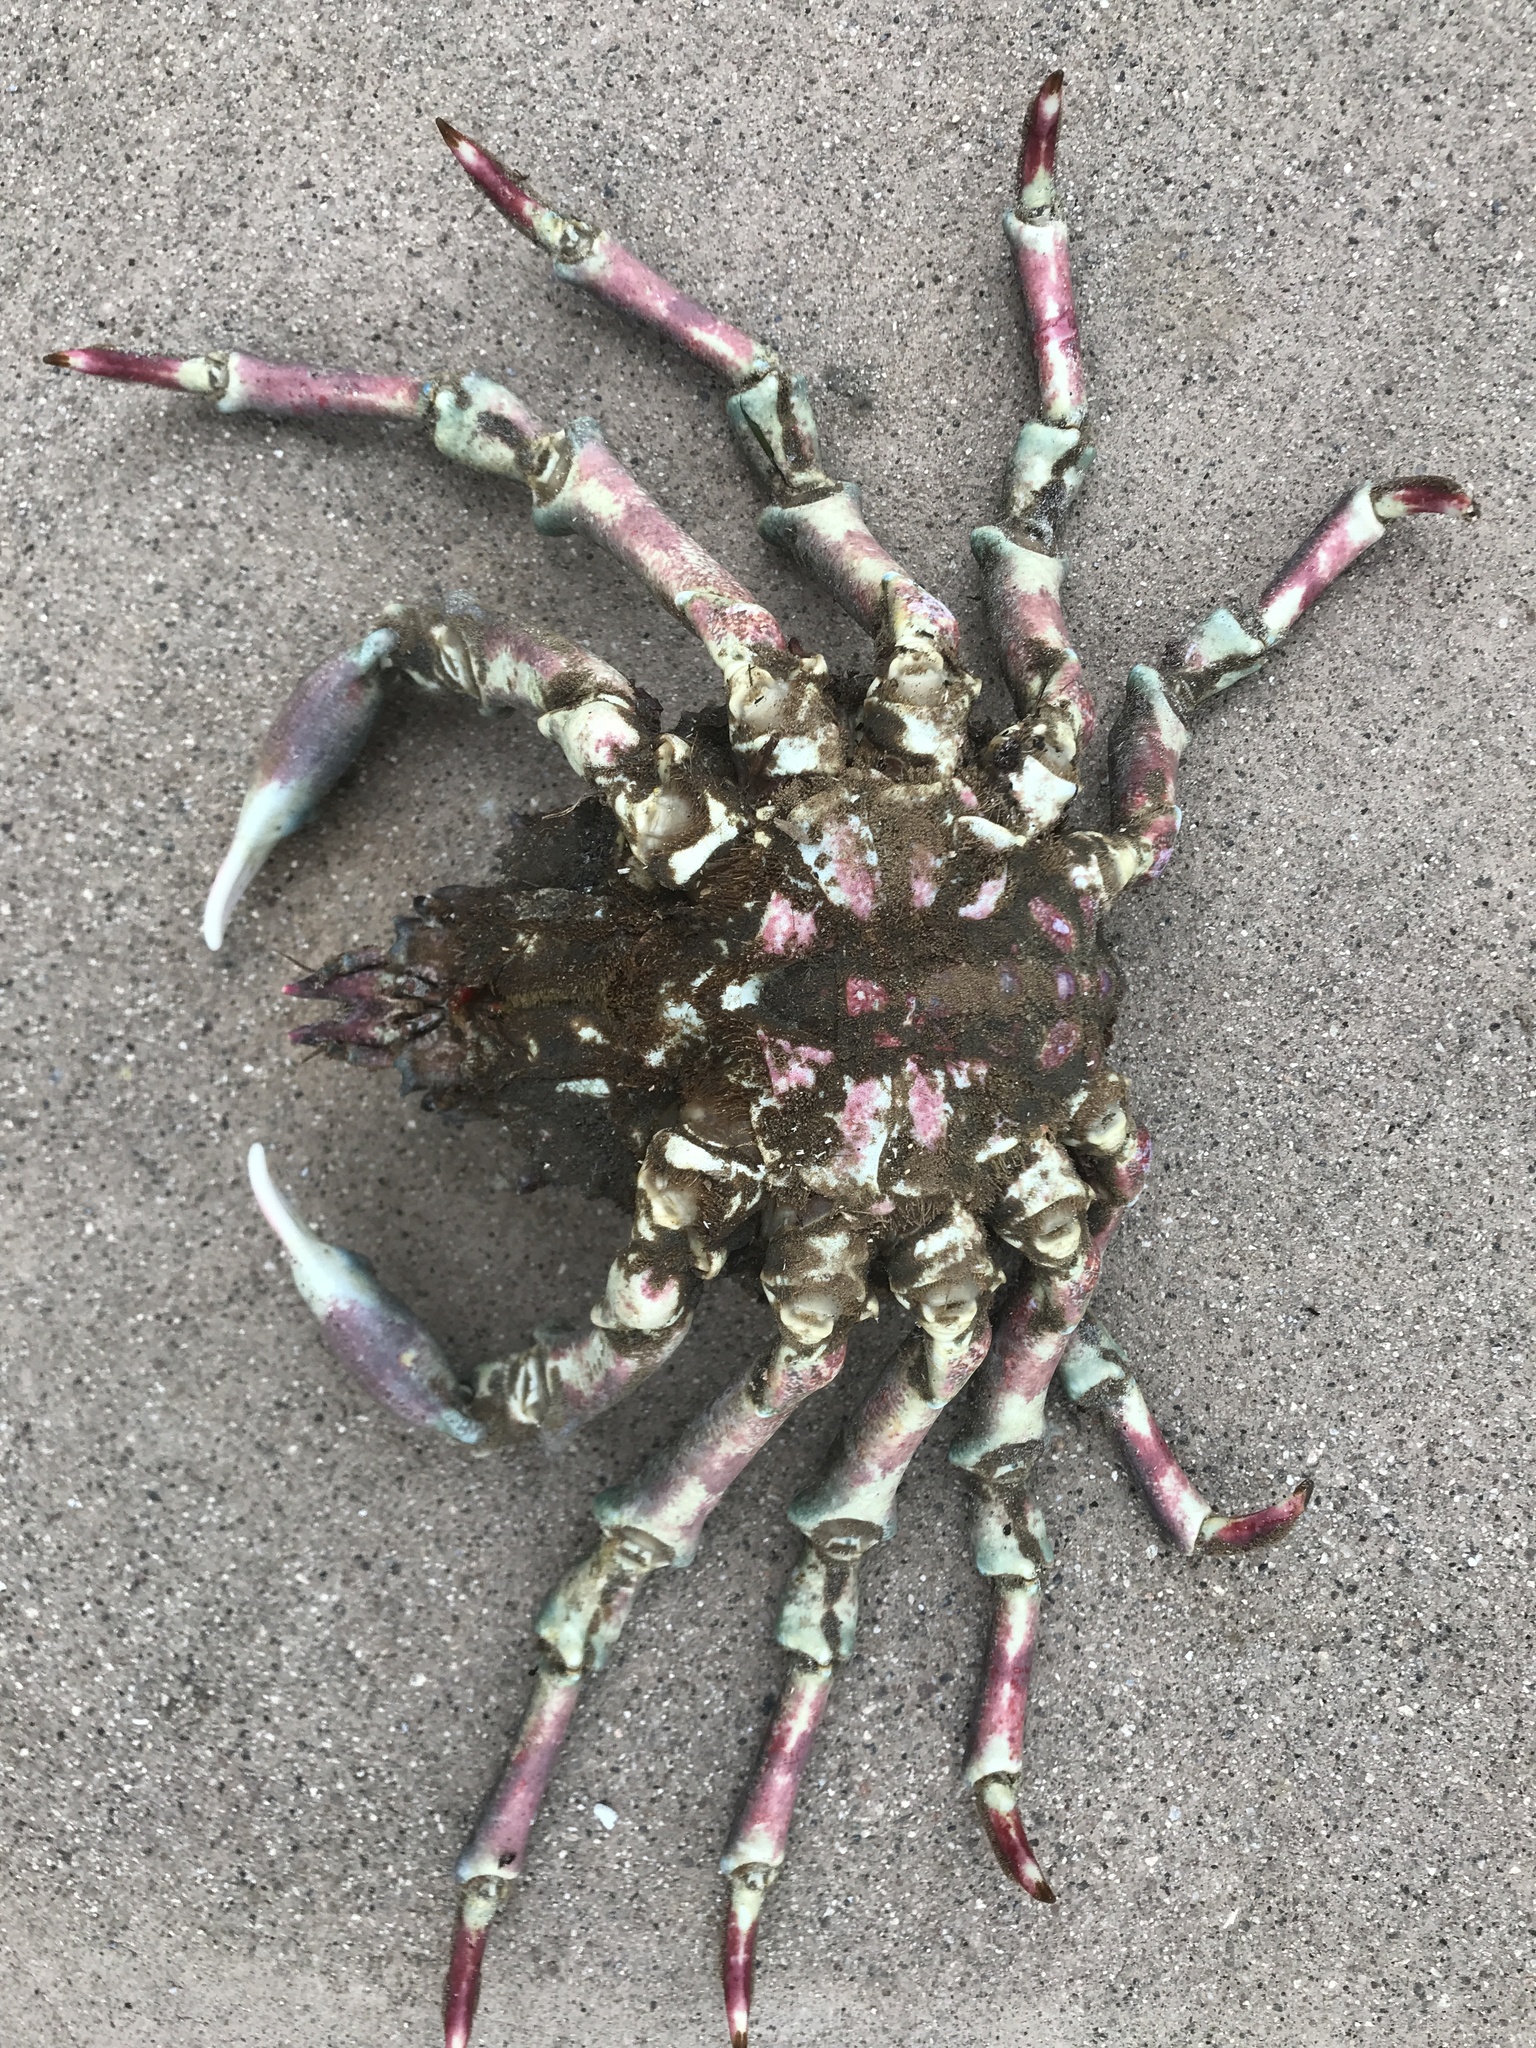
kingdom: Animalia
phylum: Arthropoda
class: Malacostraca
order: Decapoda
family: Epialtidae
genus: Loxorhynchus
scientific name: Loxorhynchus grandis
